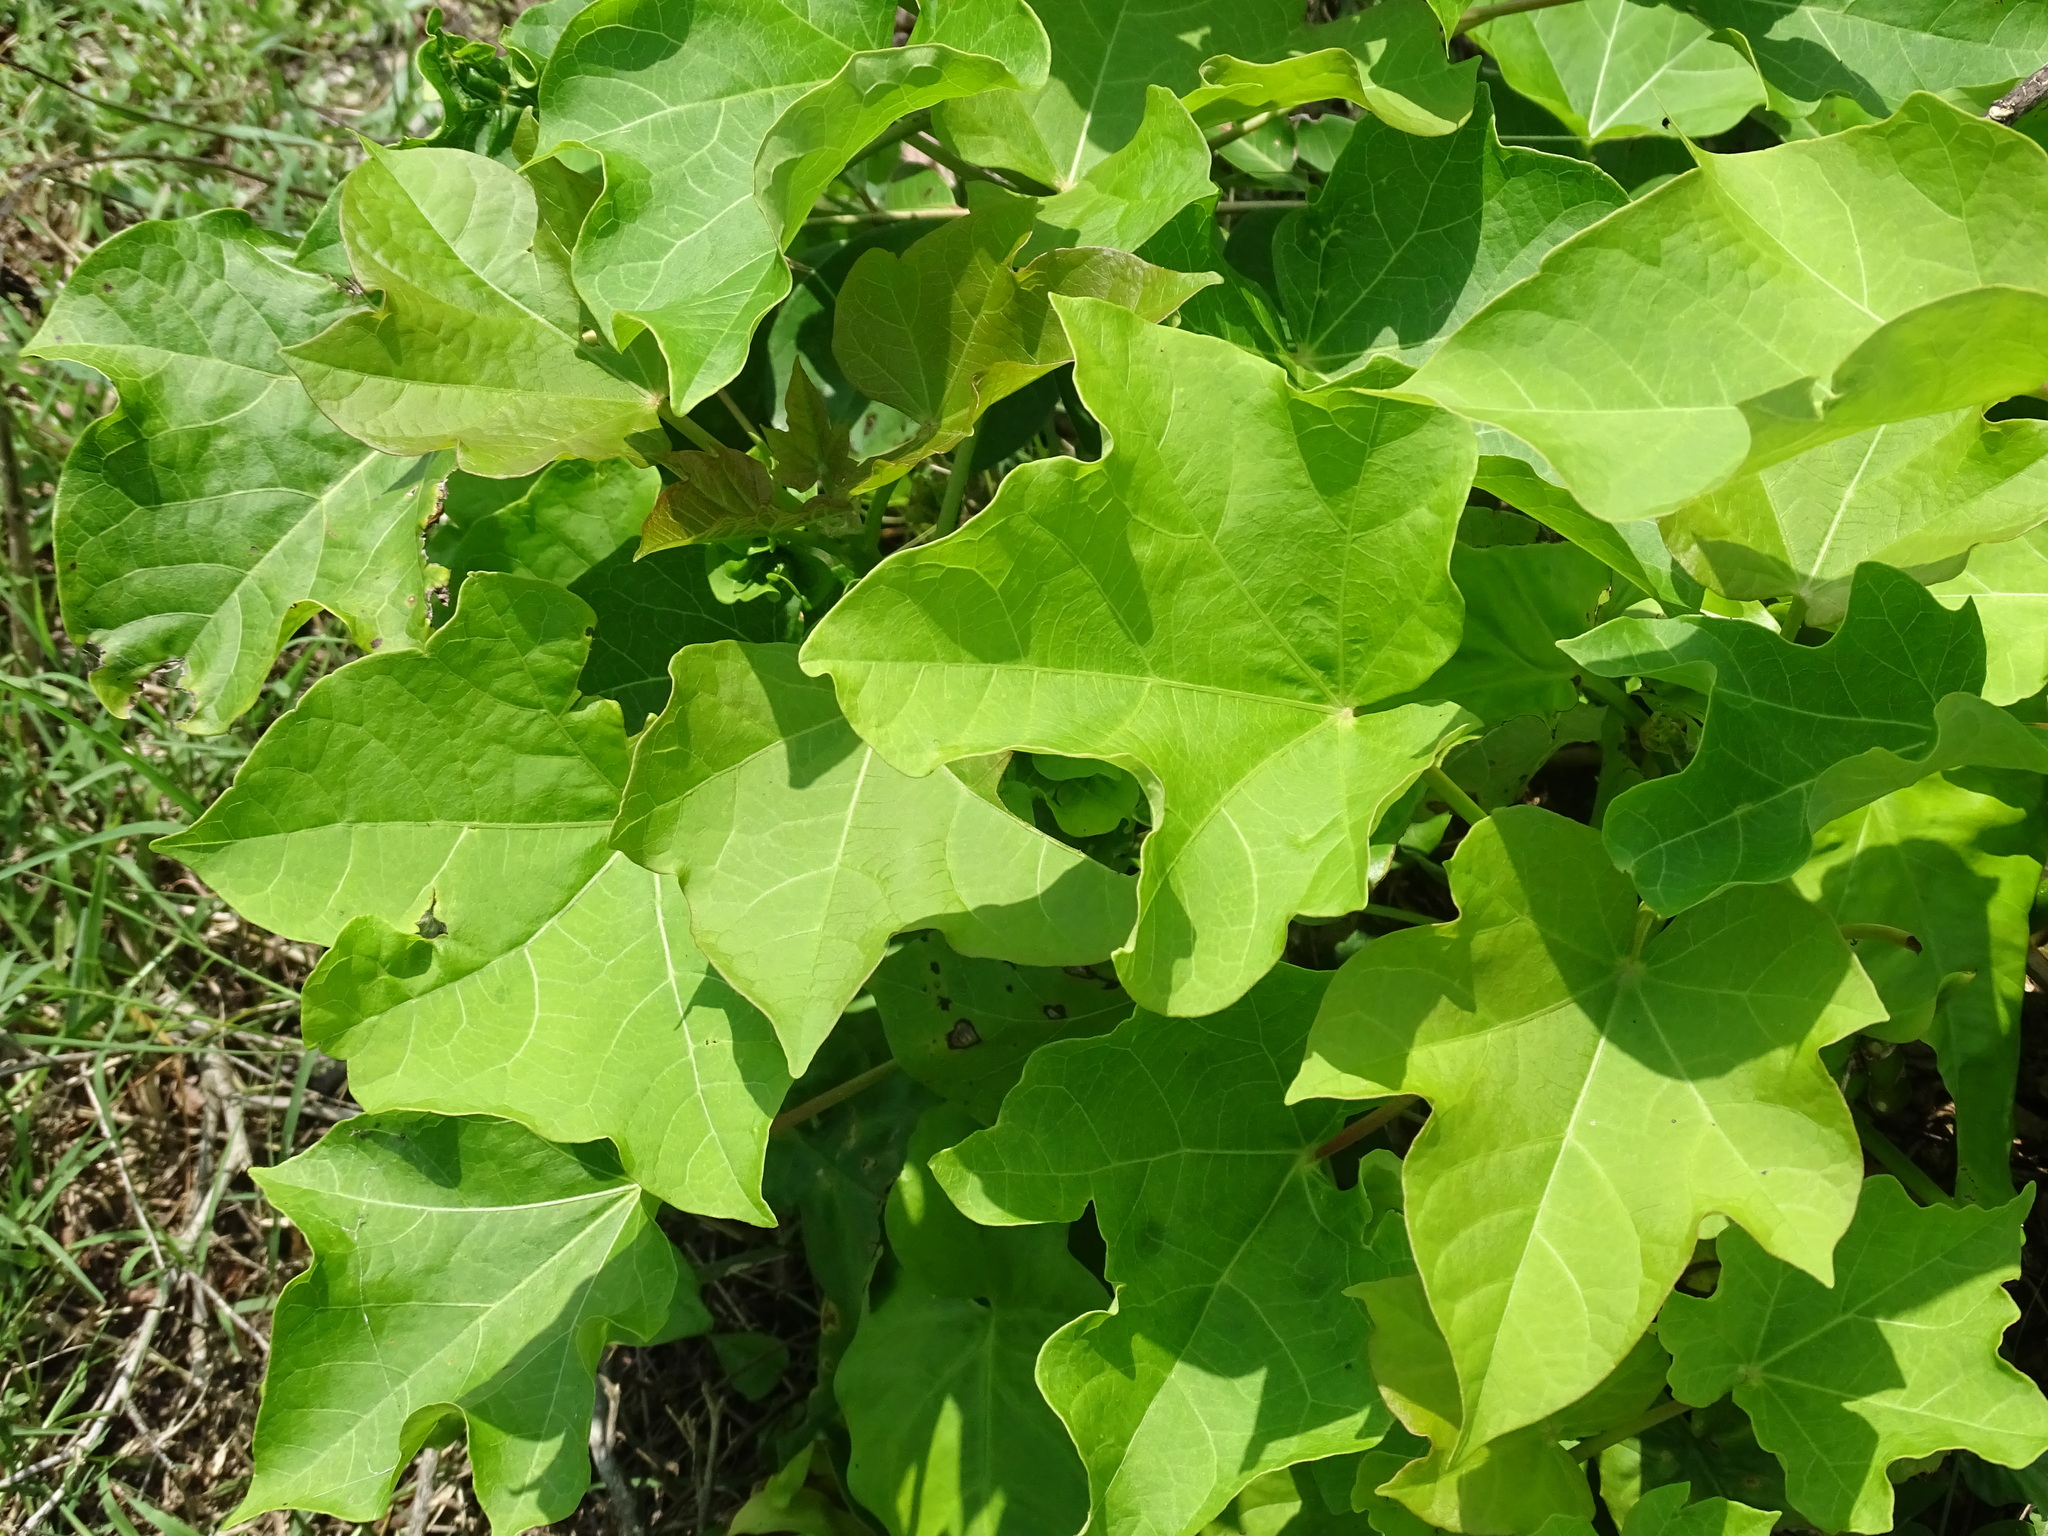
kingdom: Plantae
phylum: Tracheophyta
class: Magnoliopsida
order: Malpighiales
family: Euphorbiaceae
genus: Jatropha
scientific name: Jatropha curcas
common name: Barbados nut
